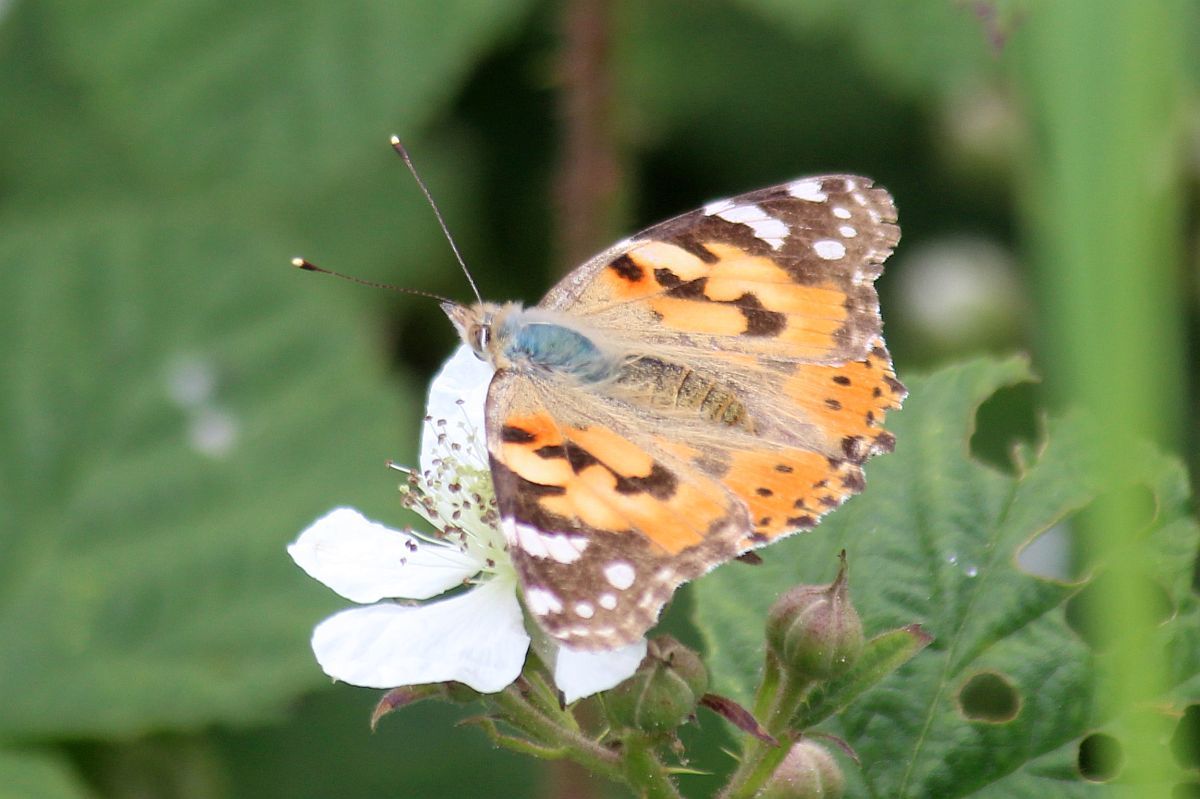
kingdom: Animalia
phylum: Arthropoda
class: Insecta
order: Lepidoptera
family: Nymphalidae
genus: Vanessa
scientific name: Vanessa cardui
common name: Painted lady
